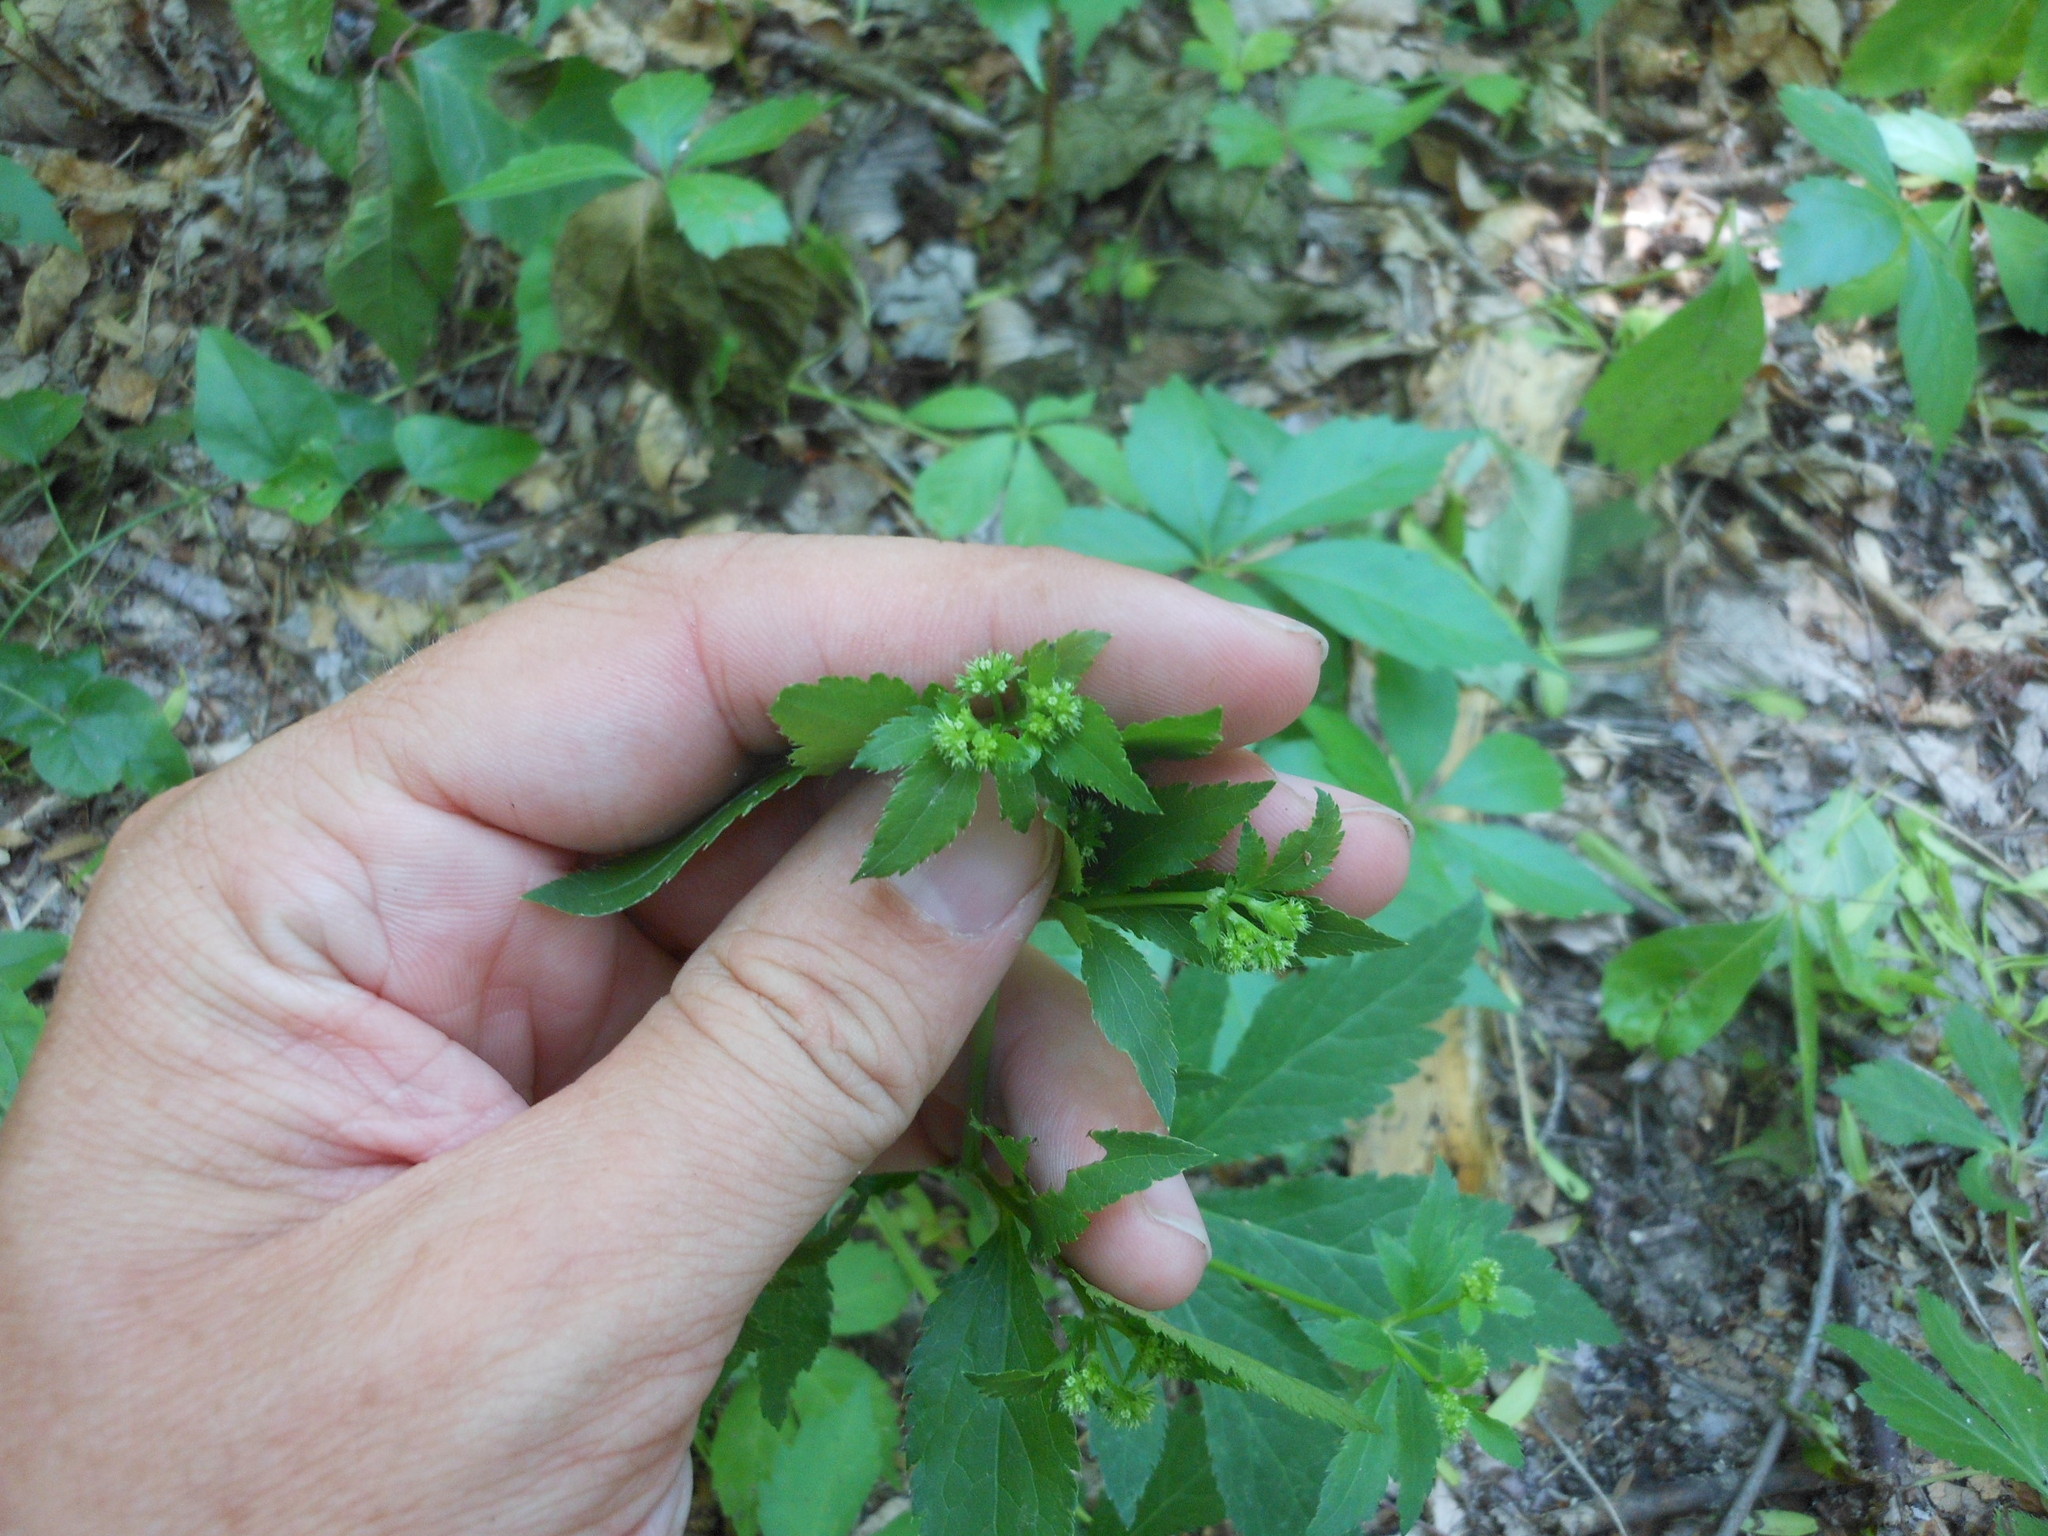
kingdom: Plantae
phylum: Tracheophyta
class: Magnoliopsida
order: Apiales
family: Apiaceae
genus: Sanicula
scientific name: Sanicula canadensis
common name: Canada sanicle
